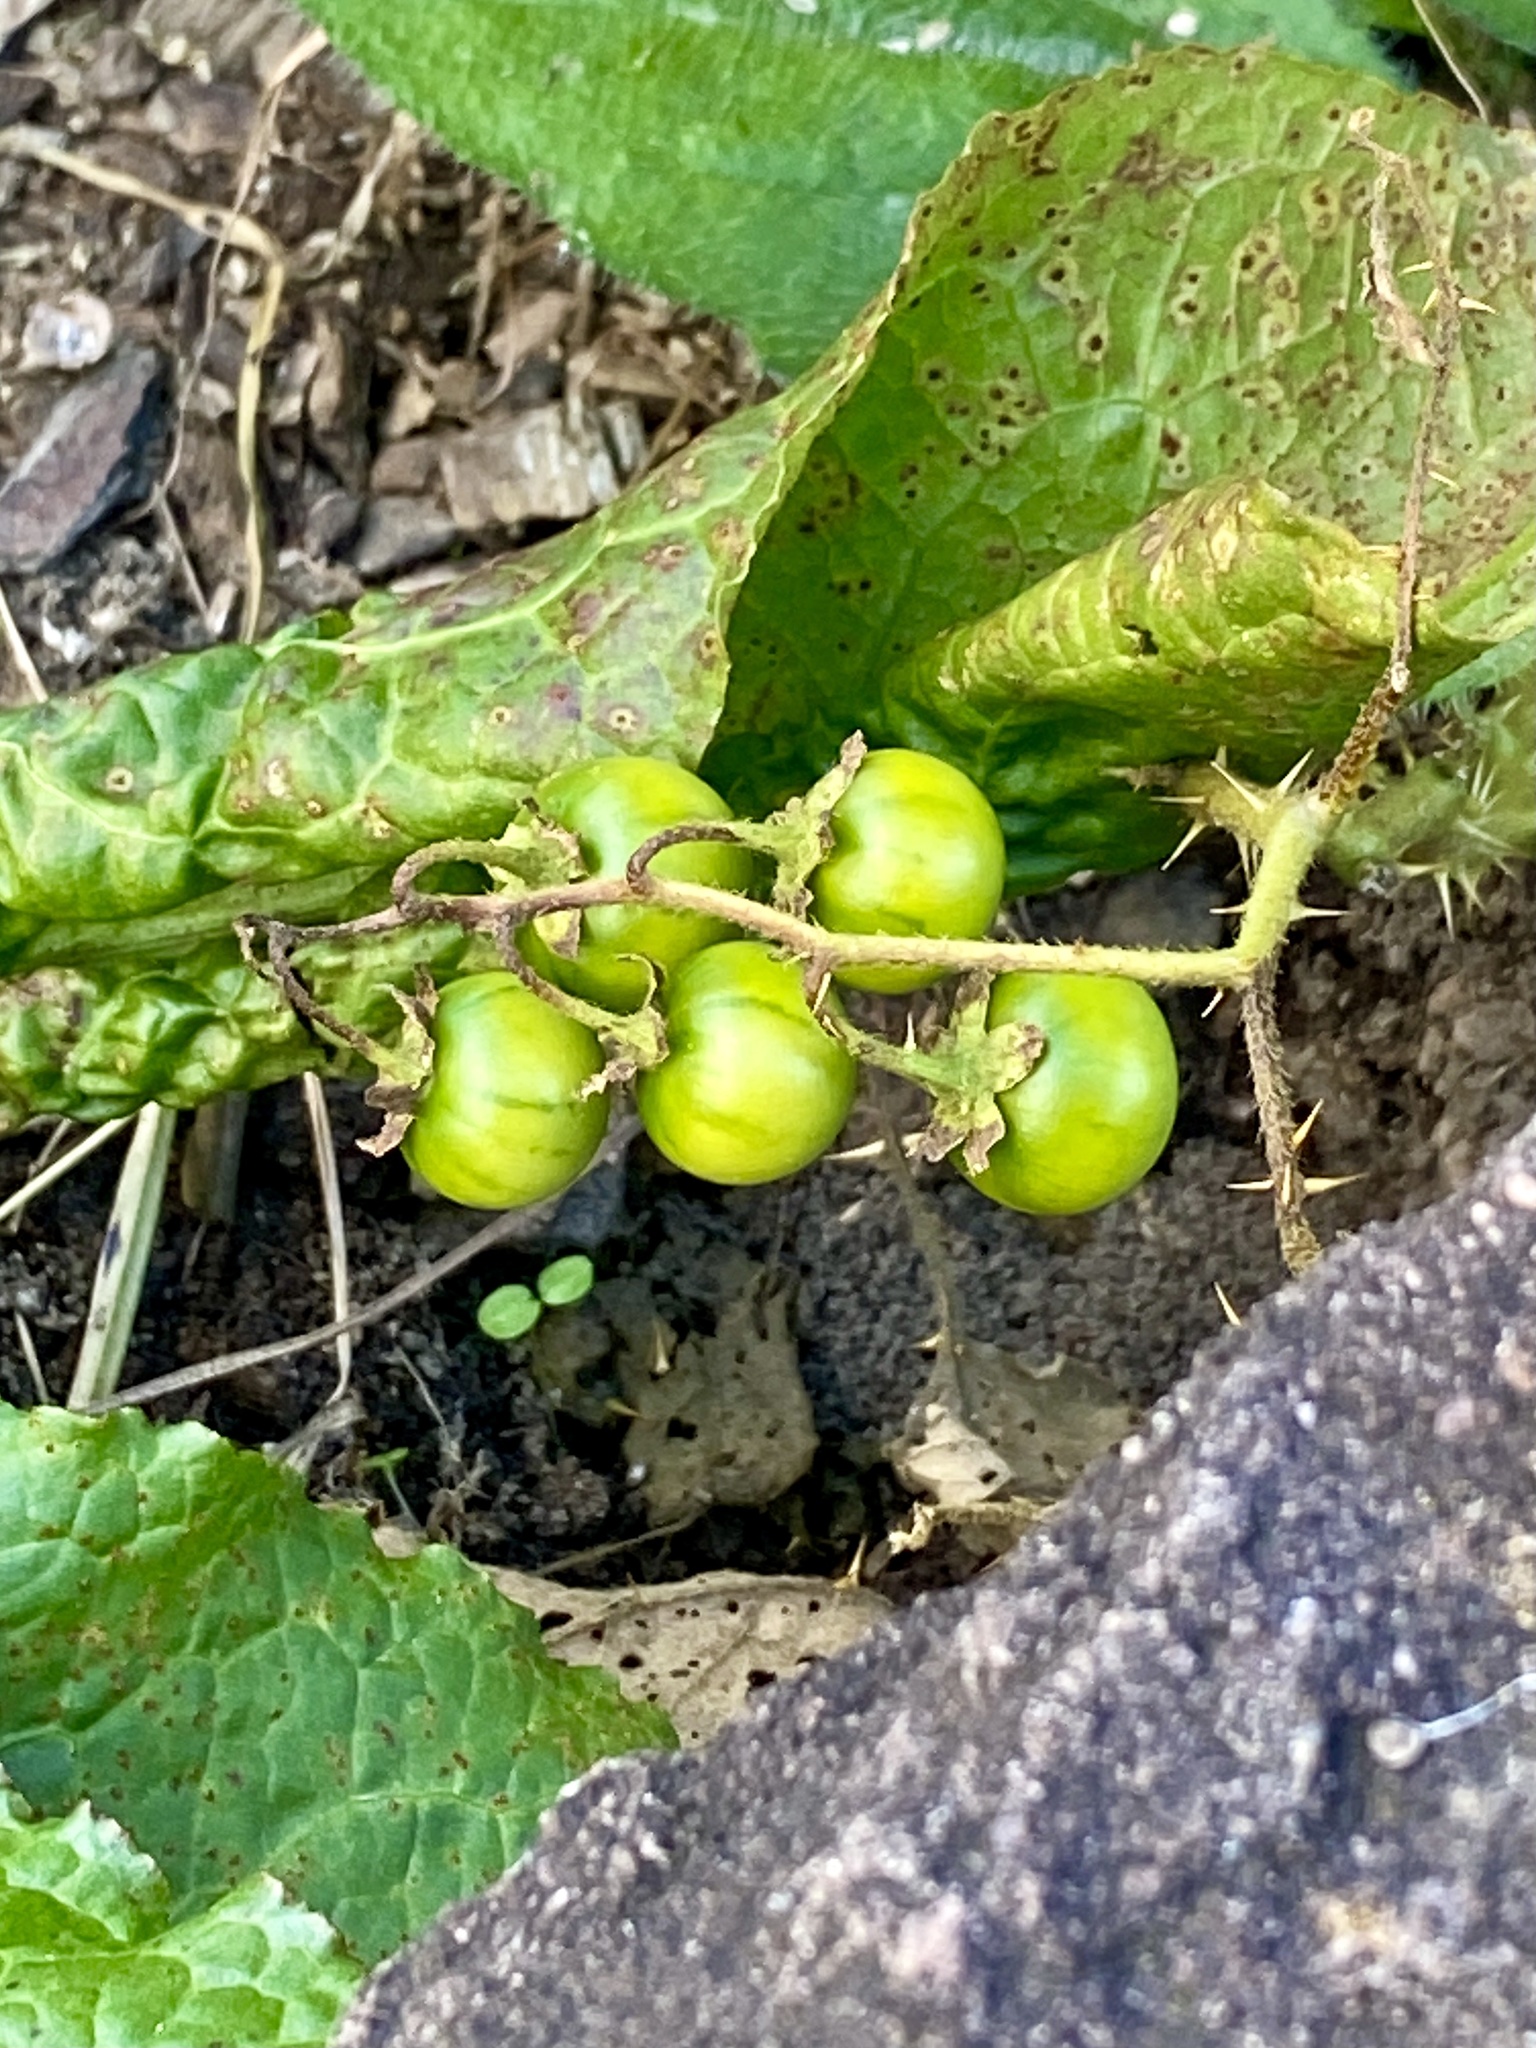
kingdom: Plantae
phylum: Tracheophyta
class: Magnoliopsida
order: Solanales
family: Solanaceae
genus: Solanum
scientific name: Solanum carolinense
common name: Horse-nettle
